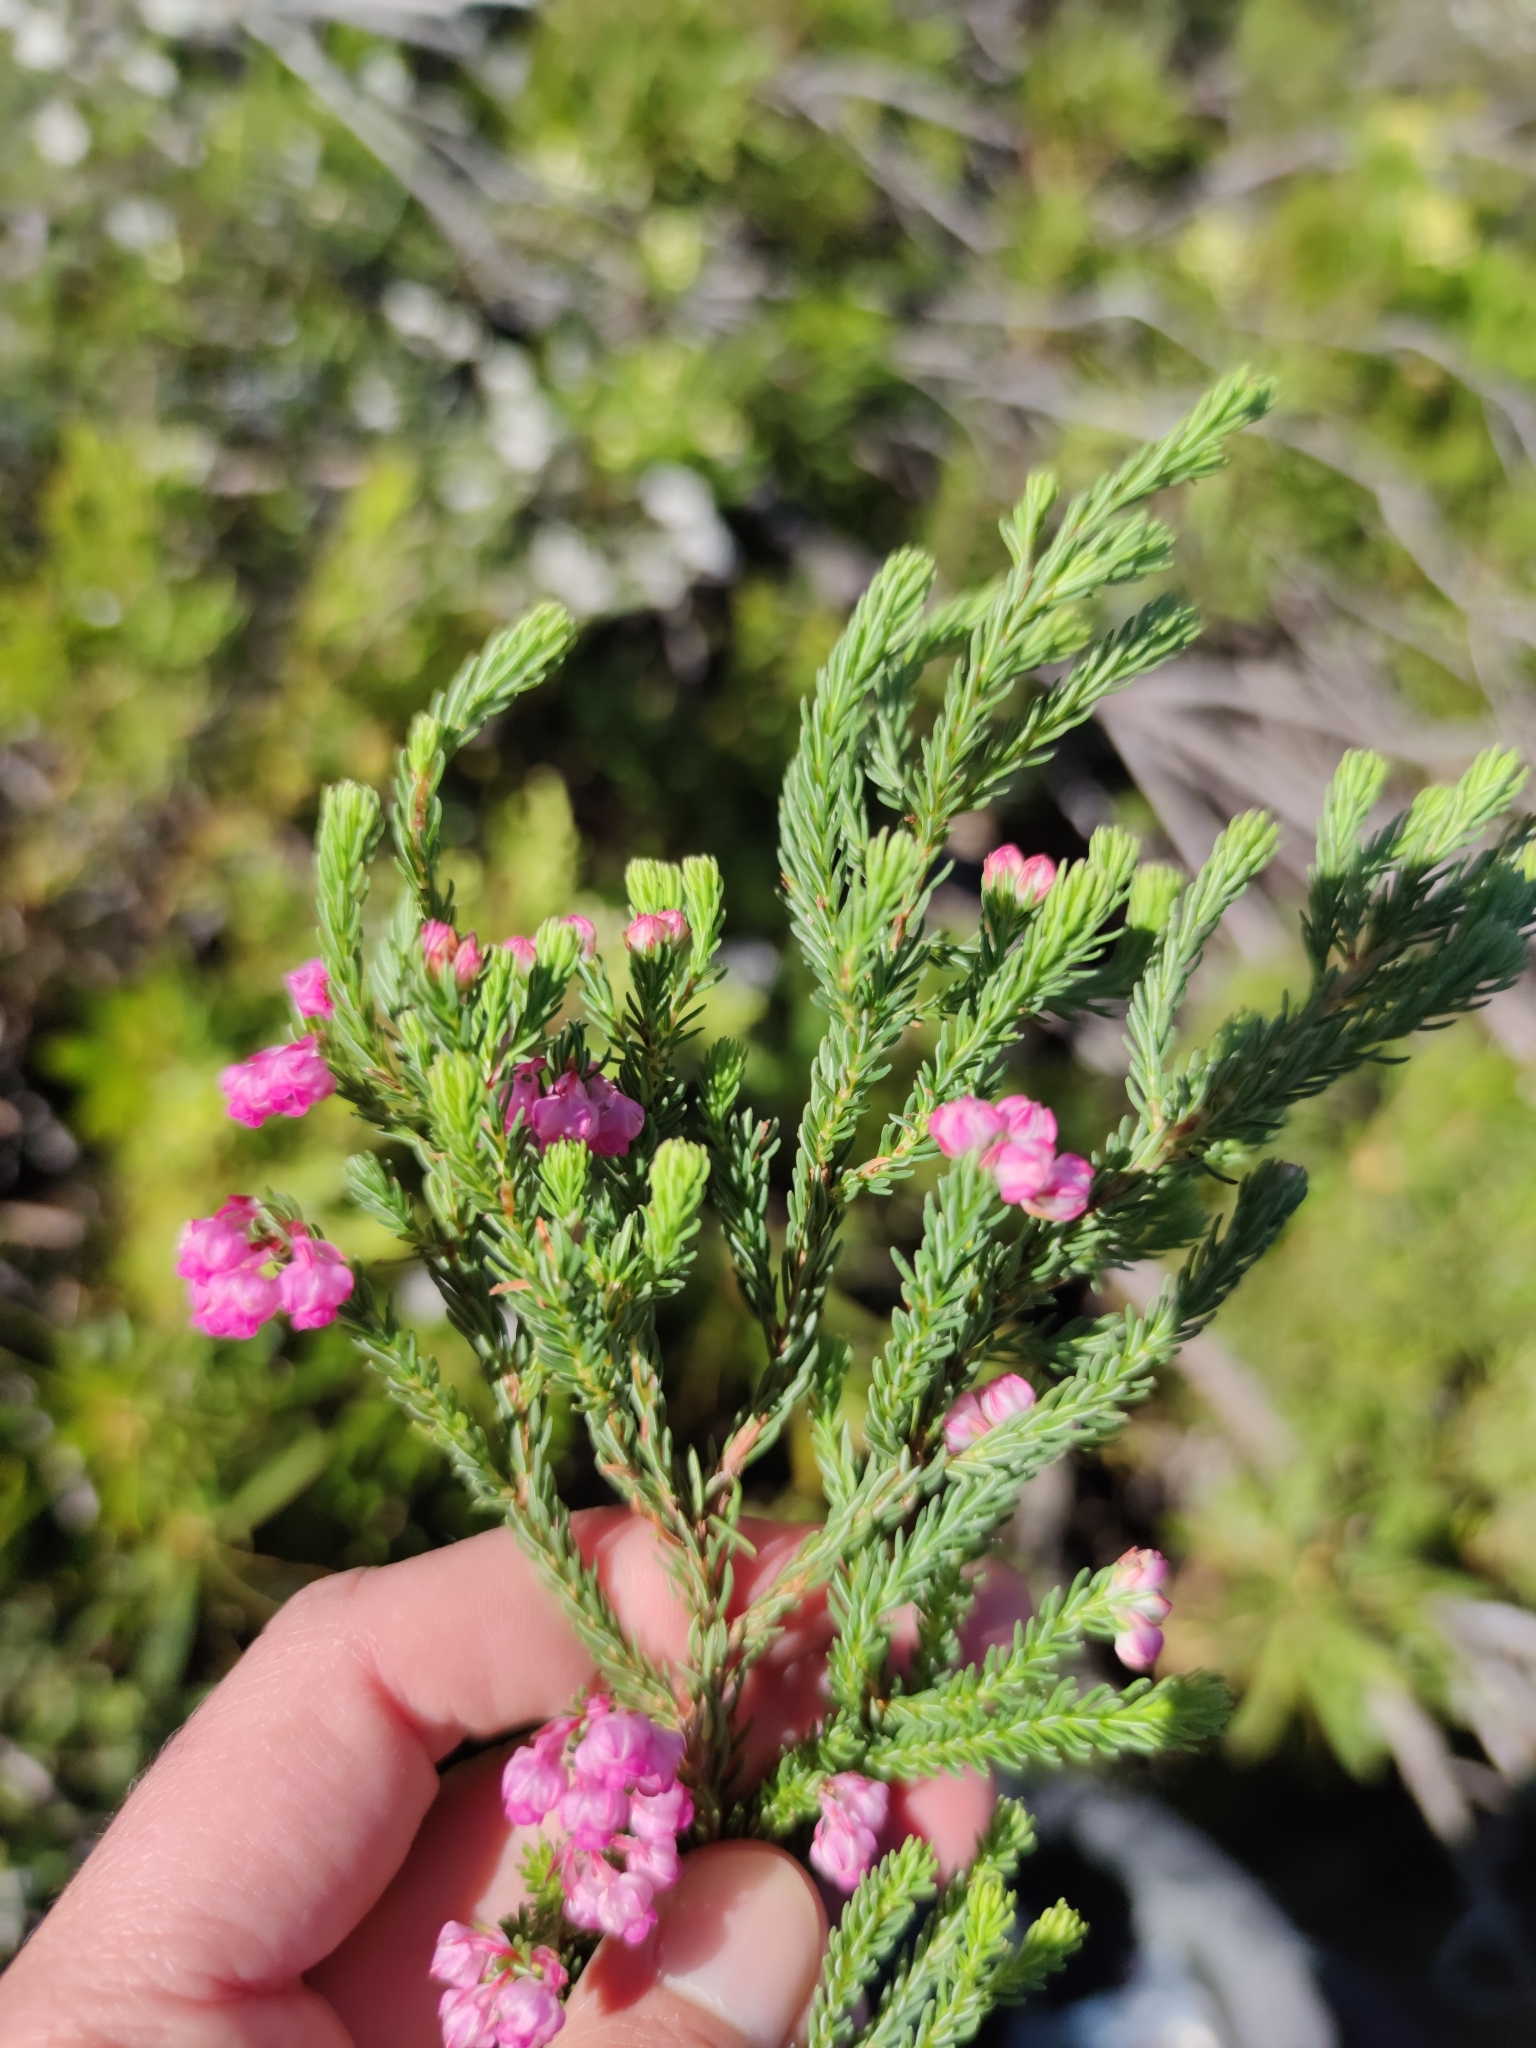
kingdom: Plantae
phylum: Tracheophyta
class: Magnoliopsida
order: Ericales
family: Ericaceae
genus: Erica
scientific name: Erica baccans
